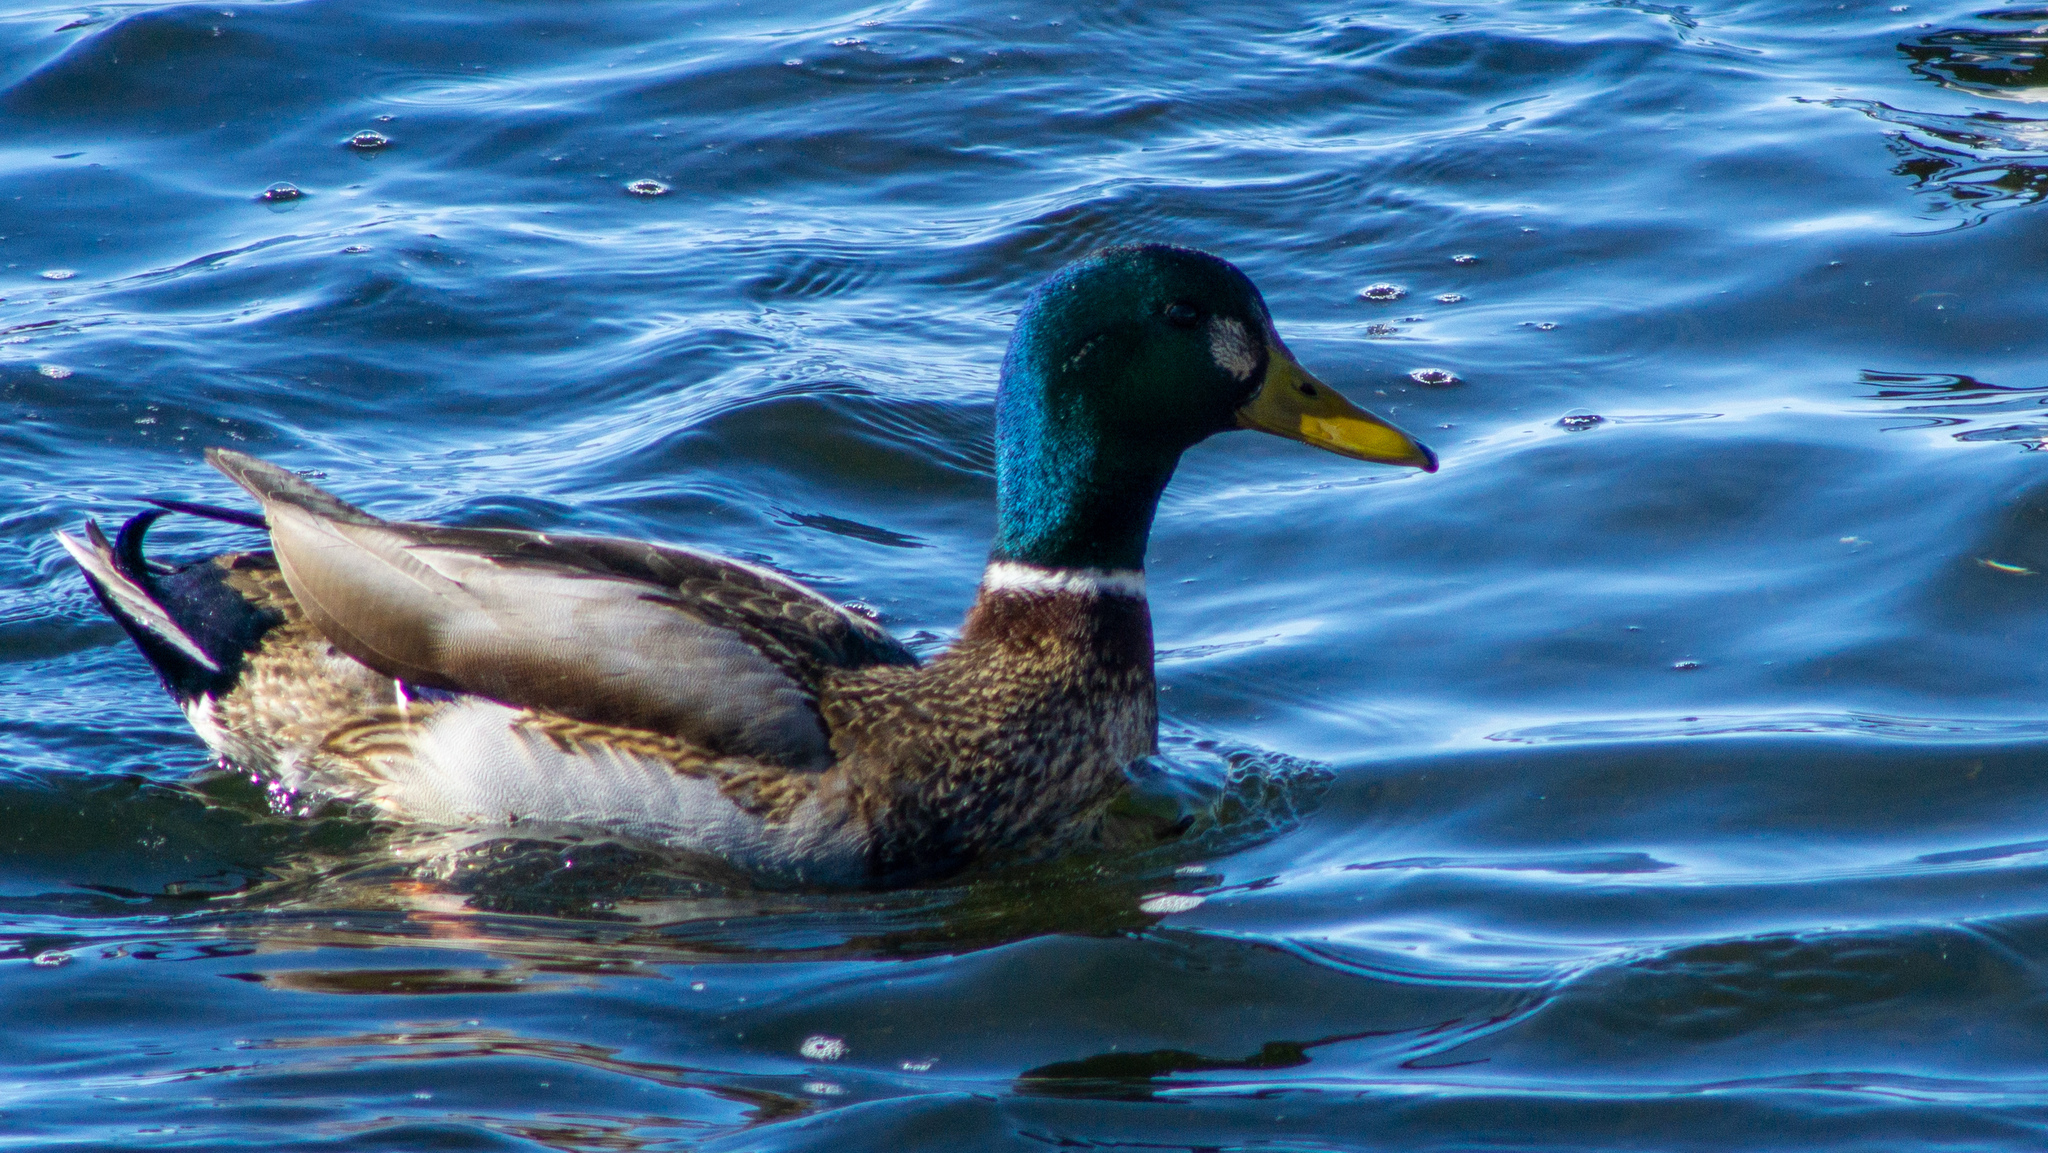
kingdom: Animalia
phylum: Chordata
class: Aves
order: Anseriformes
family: Anatidae
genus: Anas
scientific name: Anas platyrhynchos
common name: Mallard
